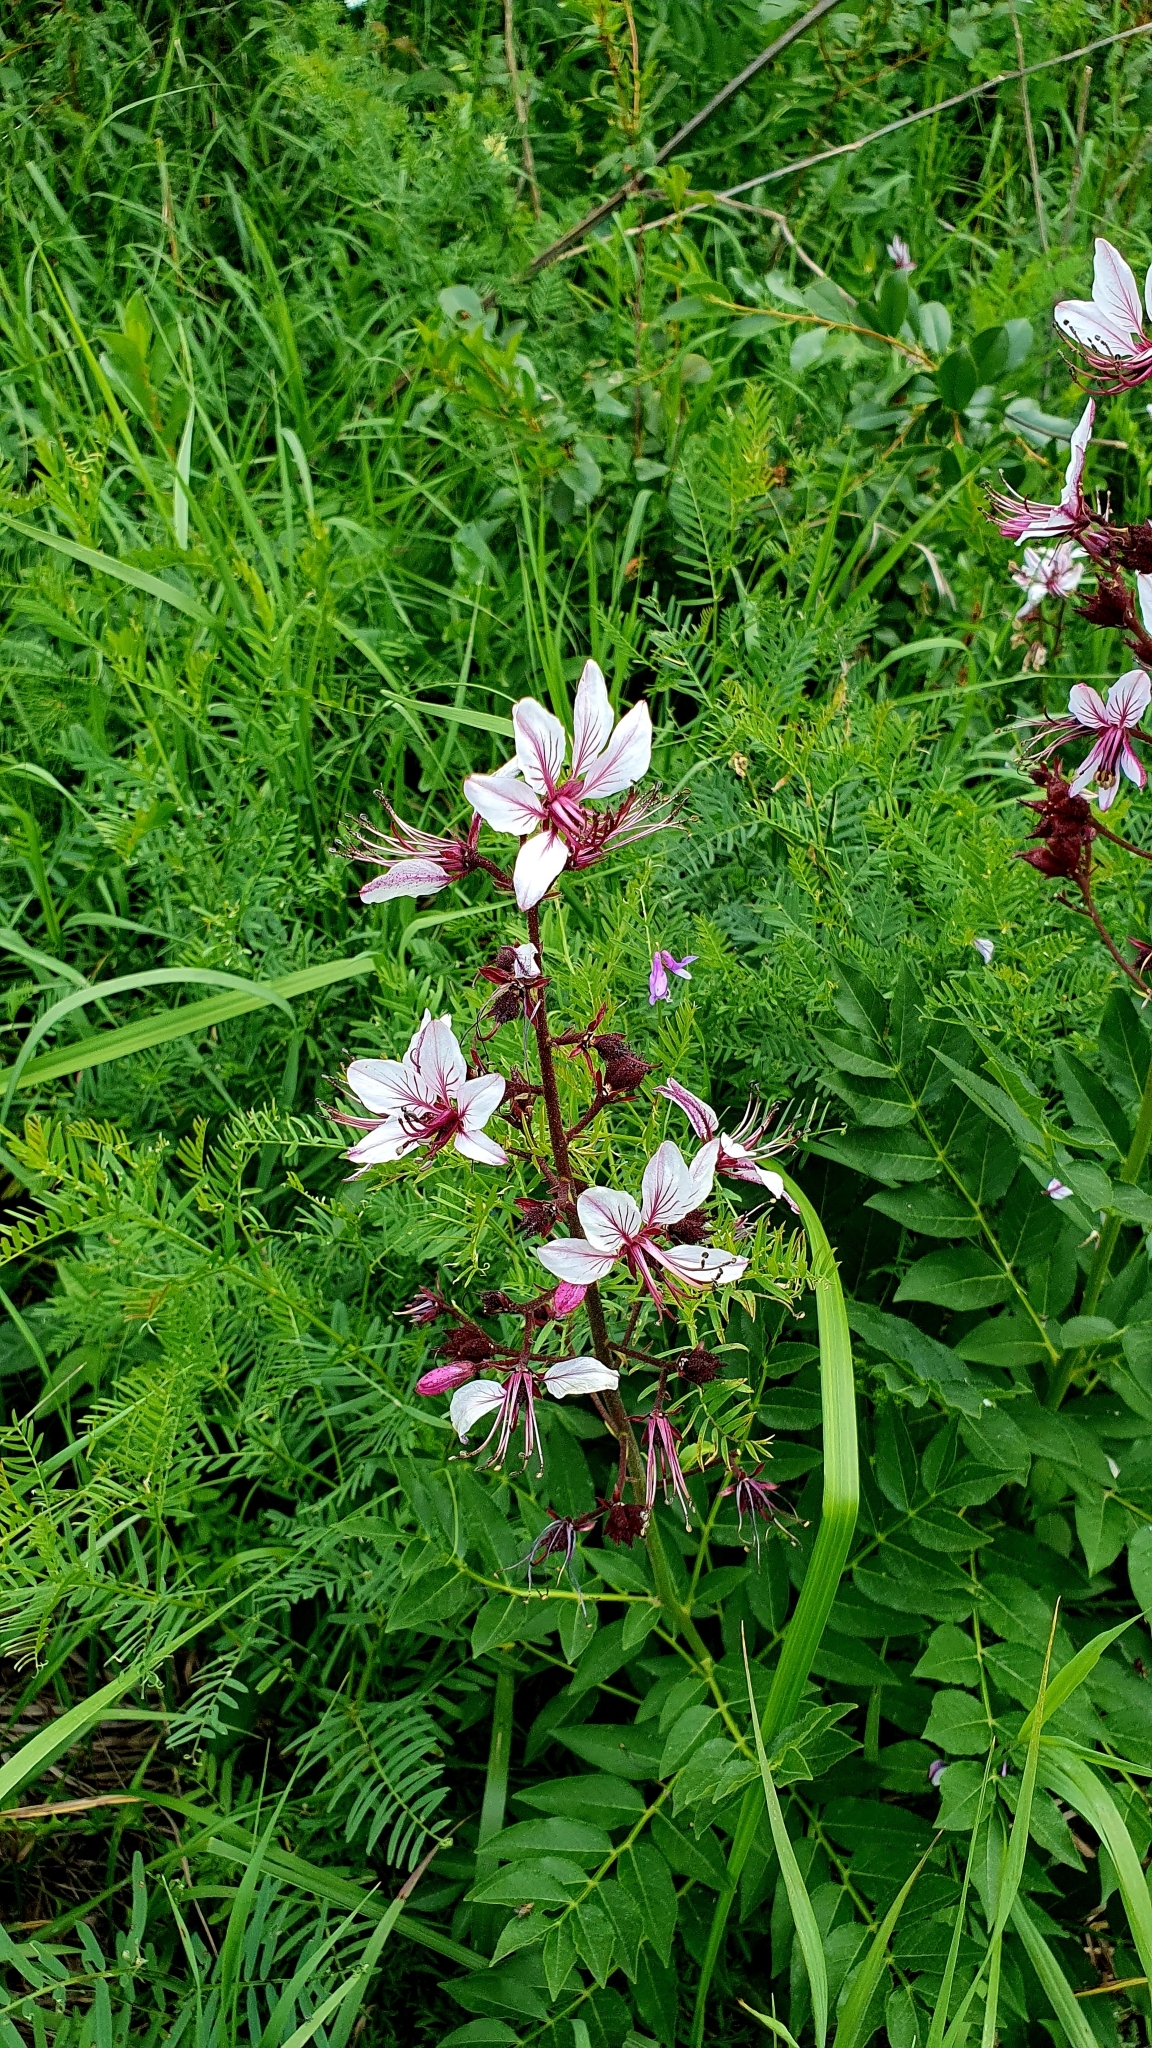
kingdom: Plantae
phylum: Tracheophyta
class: Magnoliopsida
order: Sapindales
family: Rutaceae
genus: Dictamnus
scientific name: Dictamnus albus
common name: Gasplant
